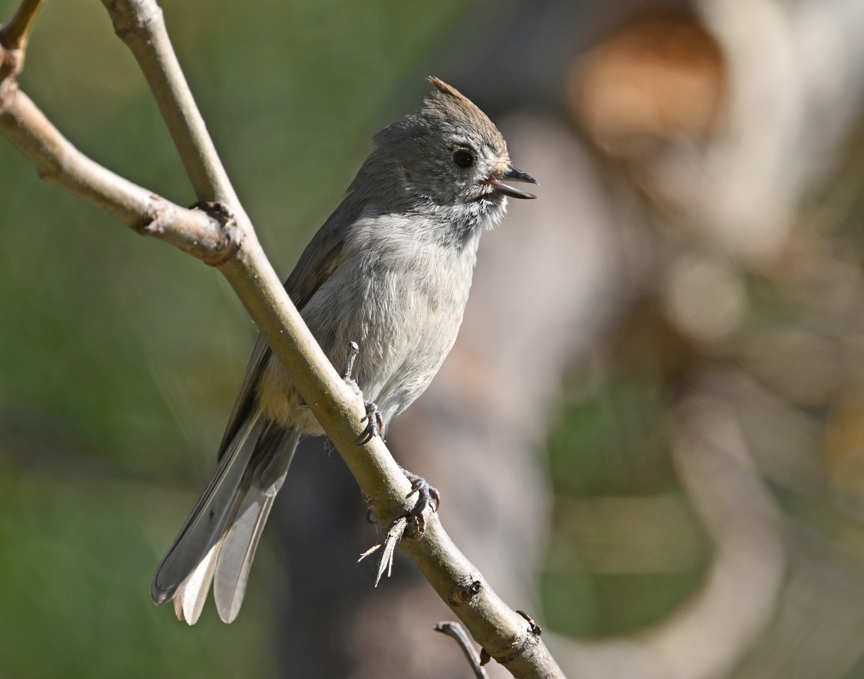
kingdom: Animalia
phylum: Chordata
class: Aves
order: Passeriformes
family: Paridae
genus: Baeolophus
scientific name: Baeolophus inornatus
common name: Oak titmouse
